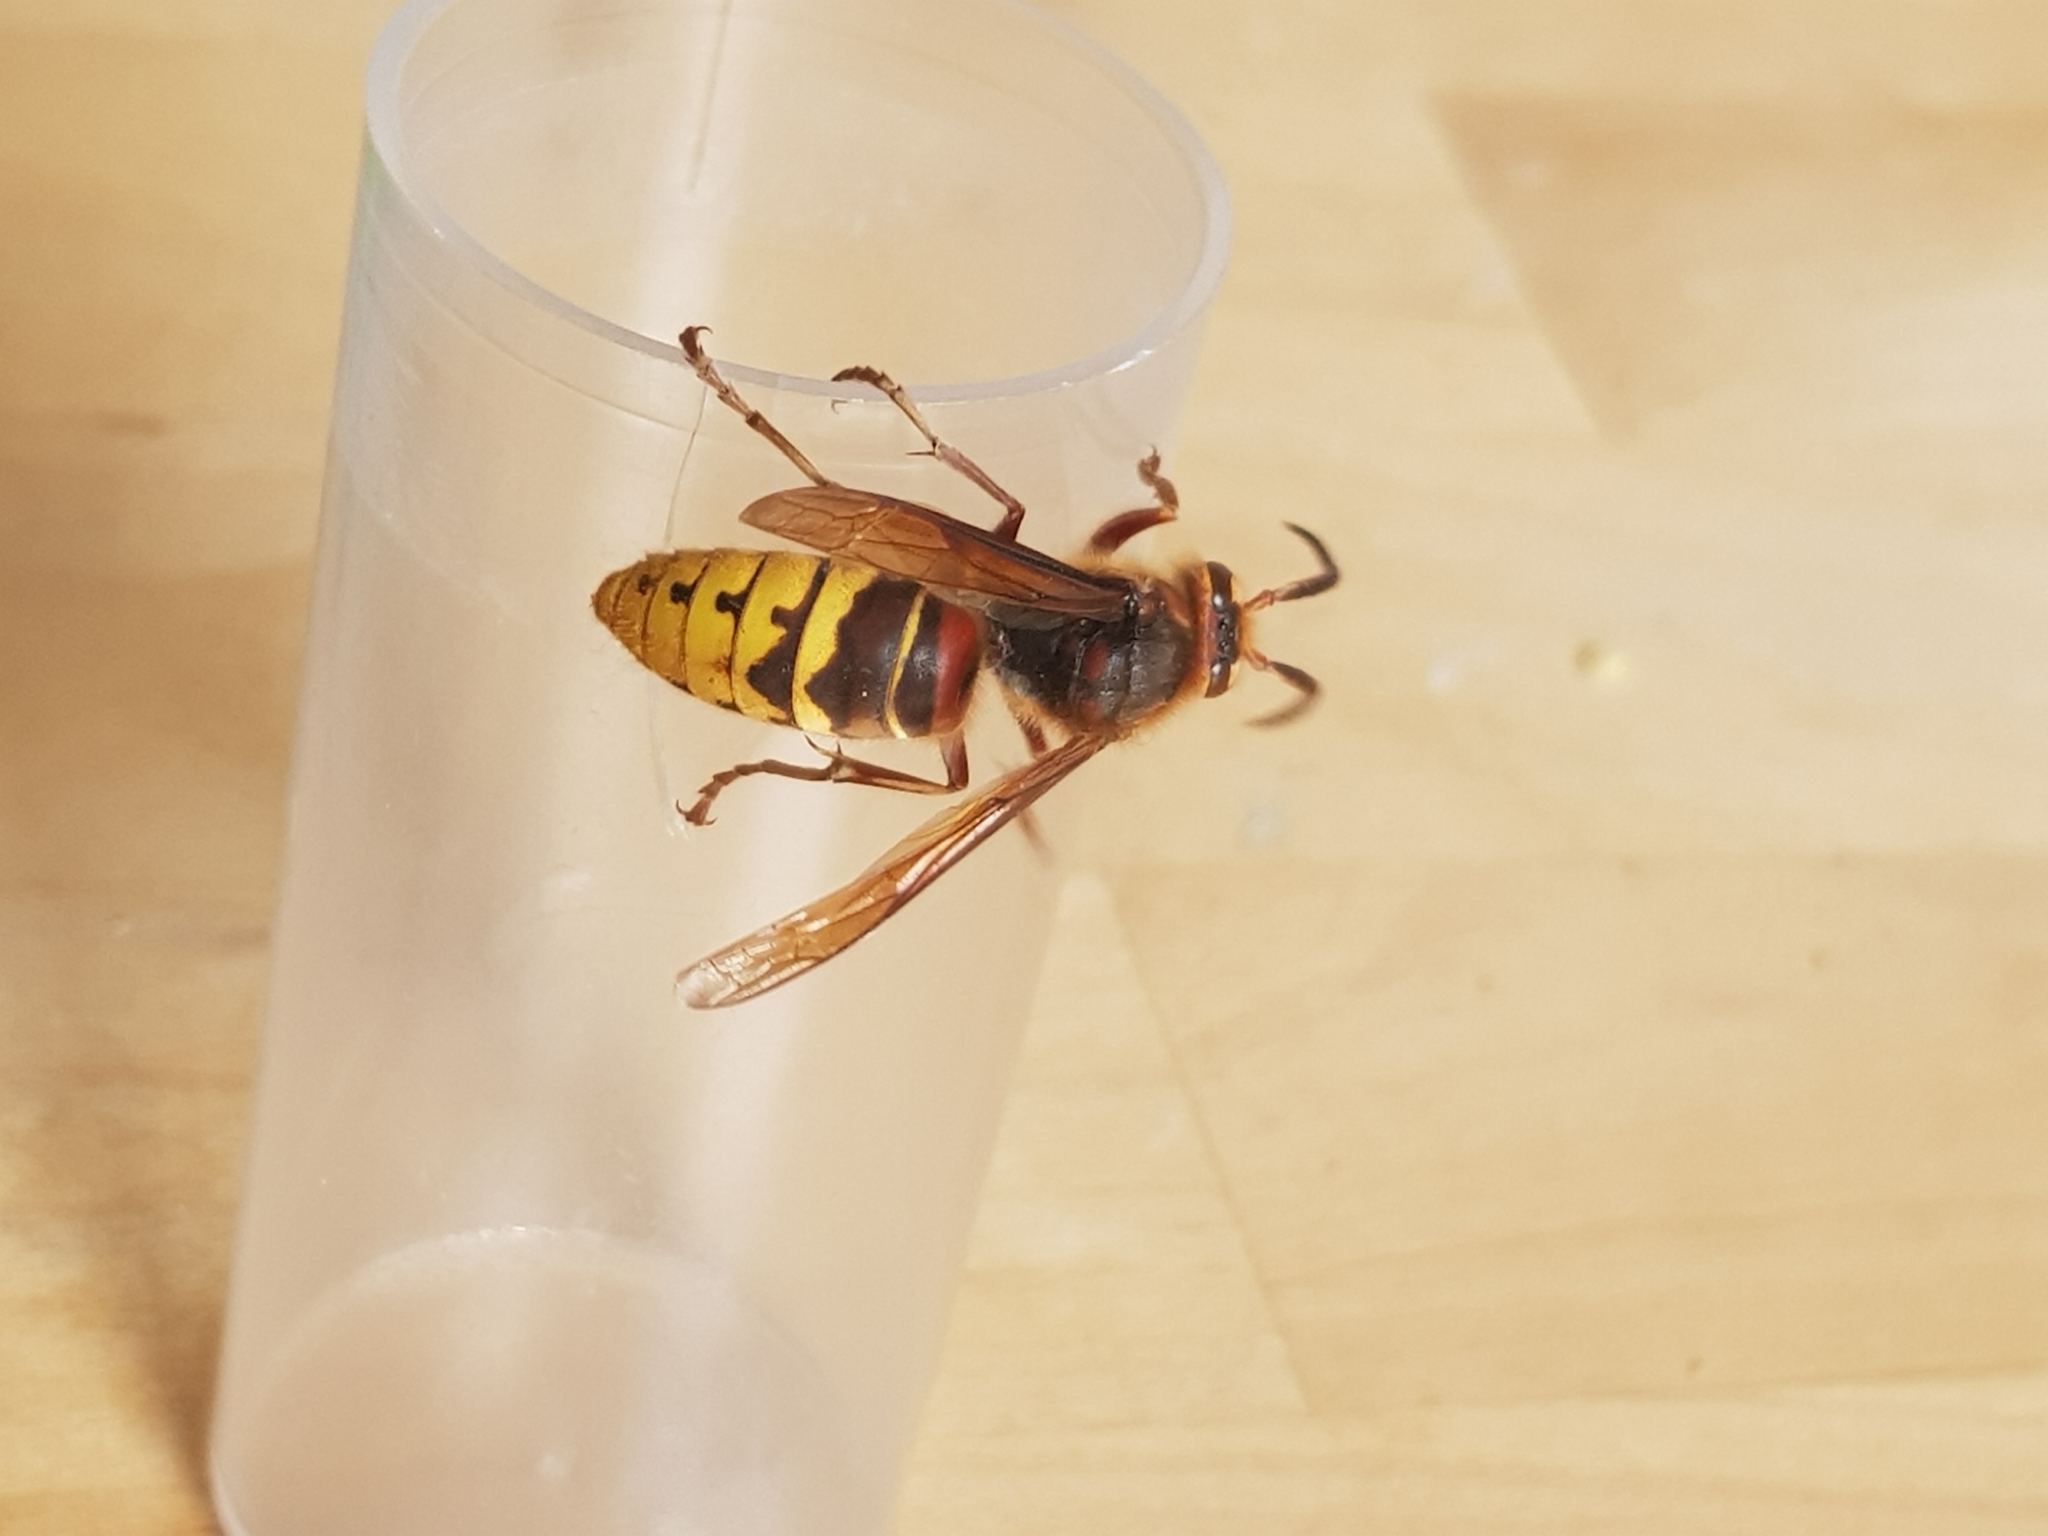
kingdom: Animalia
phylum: Arthropoda
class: Insecta
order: Hymenoptera
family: Vespidae
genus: Vespa
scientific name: Vespa crabro
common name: Hornet
